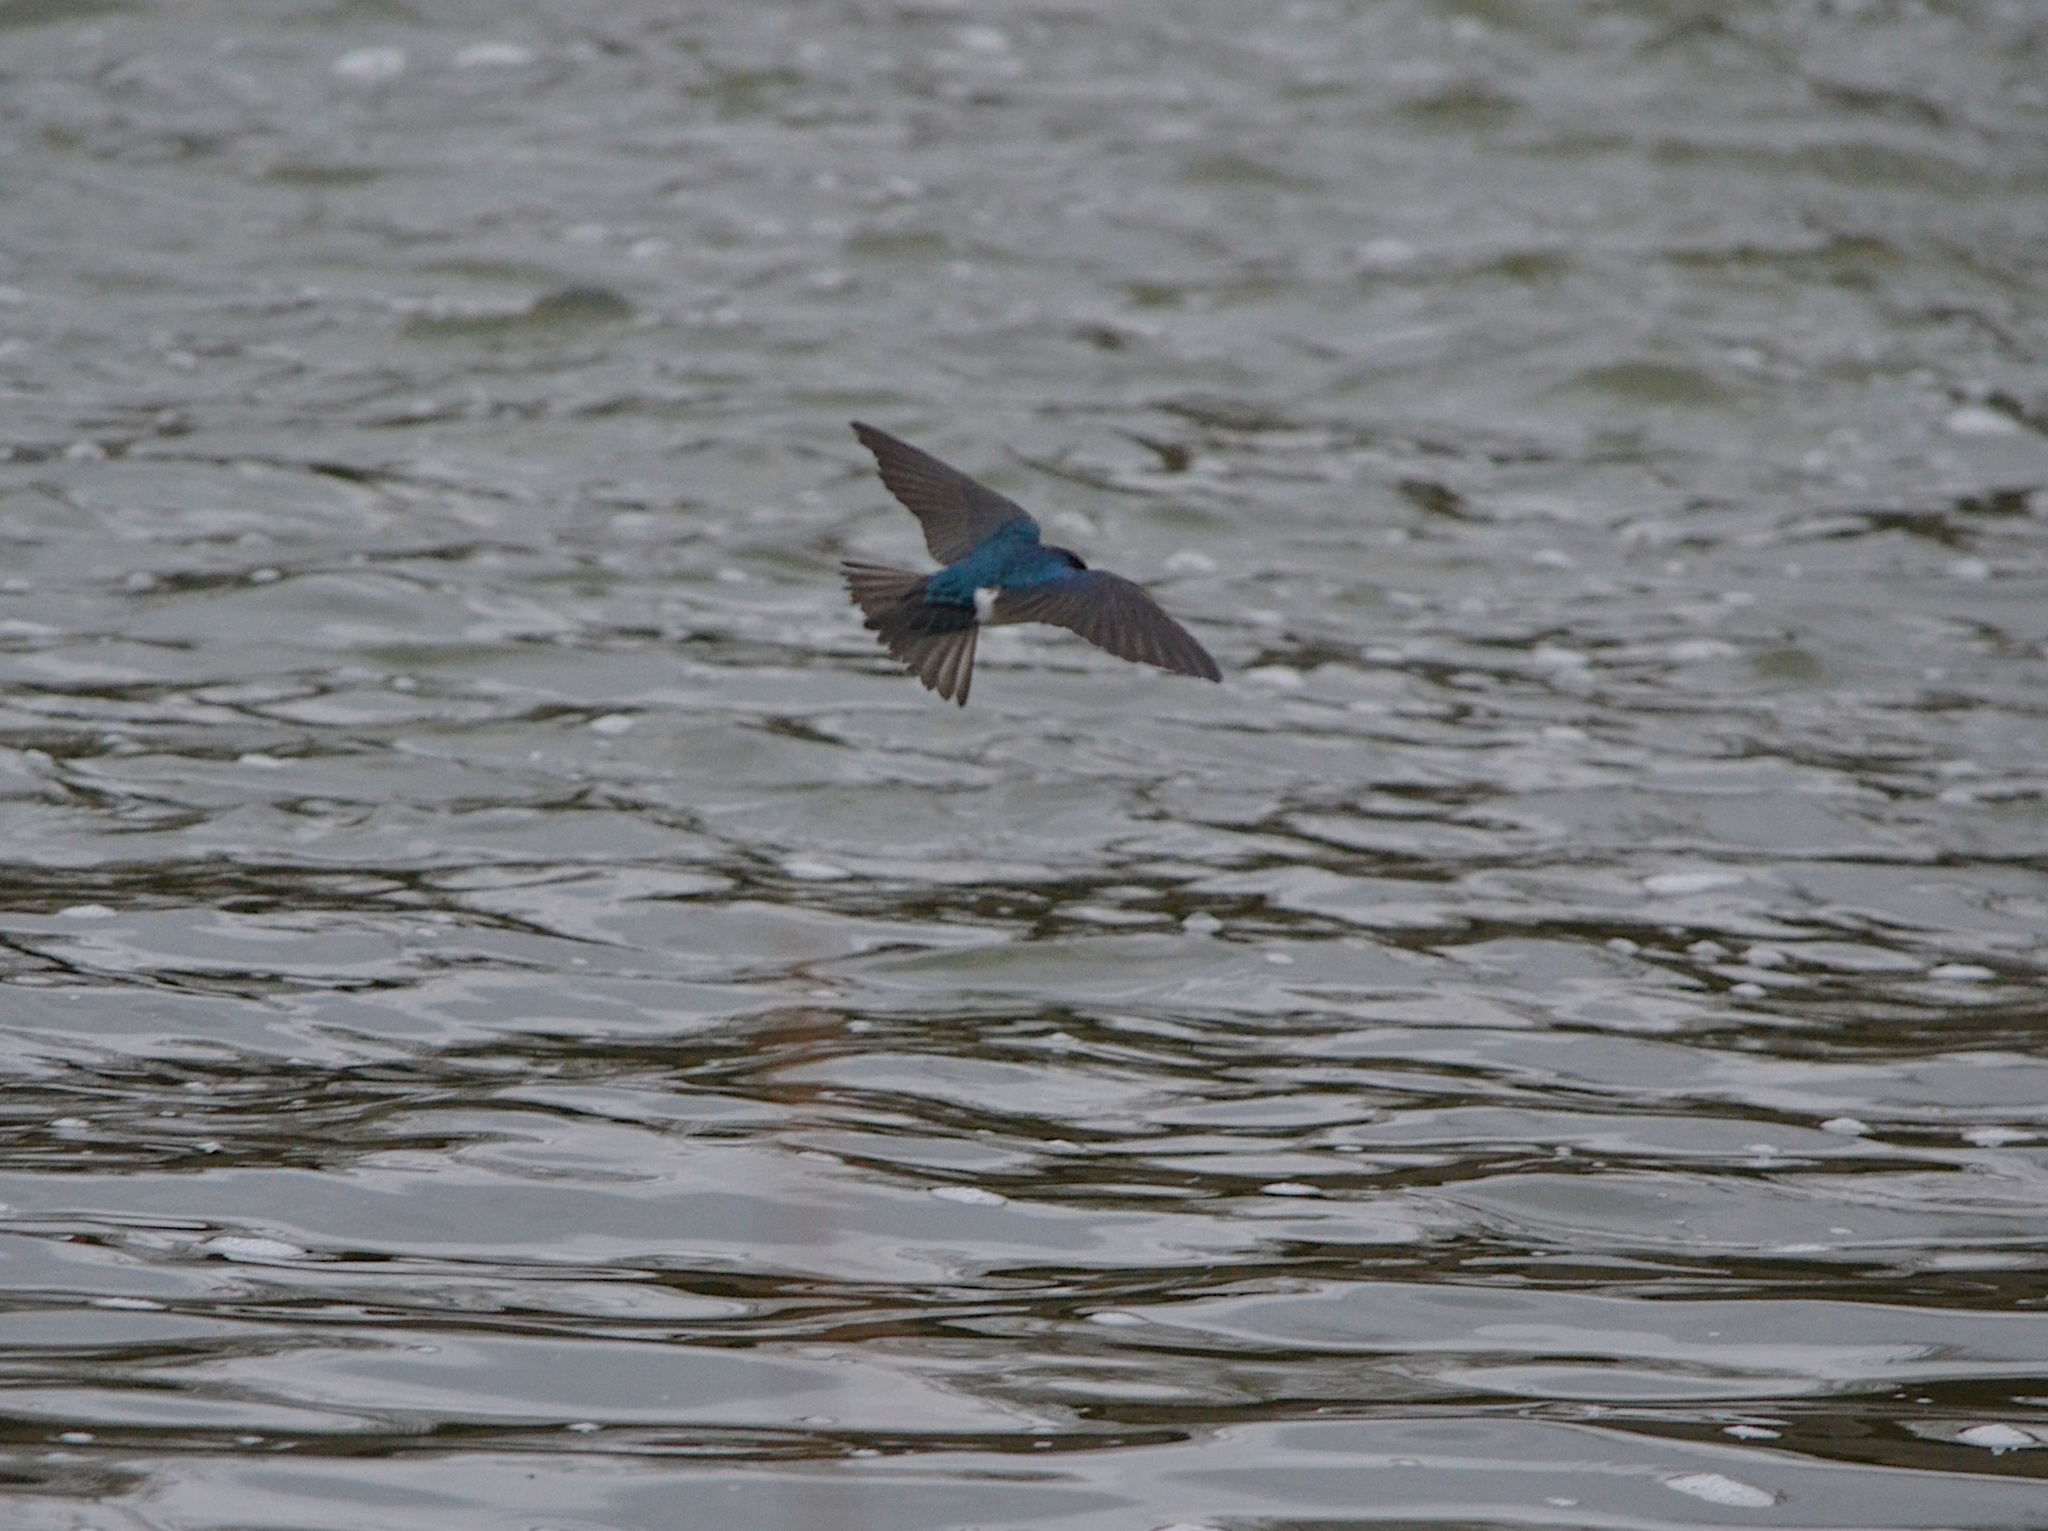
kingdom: Animalia
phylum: Chordata
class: Aves
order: Passeriformes
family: Hirundinidae
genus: Tachycineta
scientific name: Tachycineta bicolor
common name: Tree swallow
